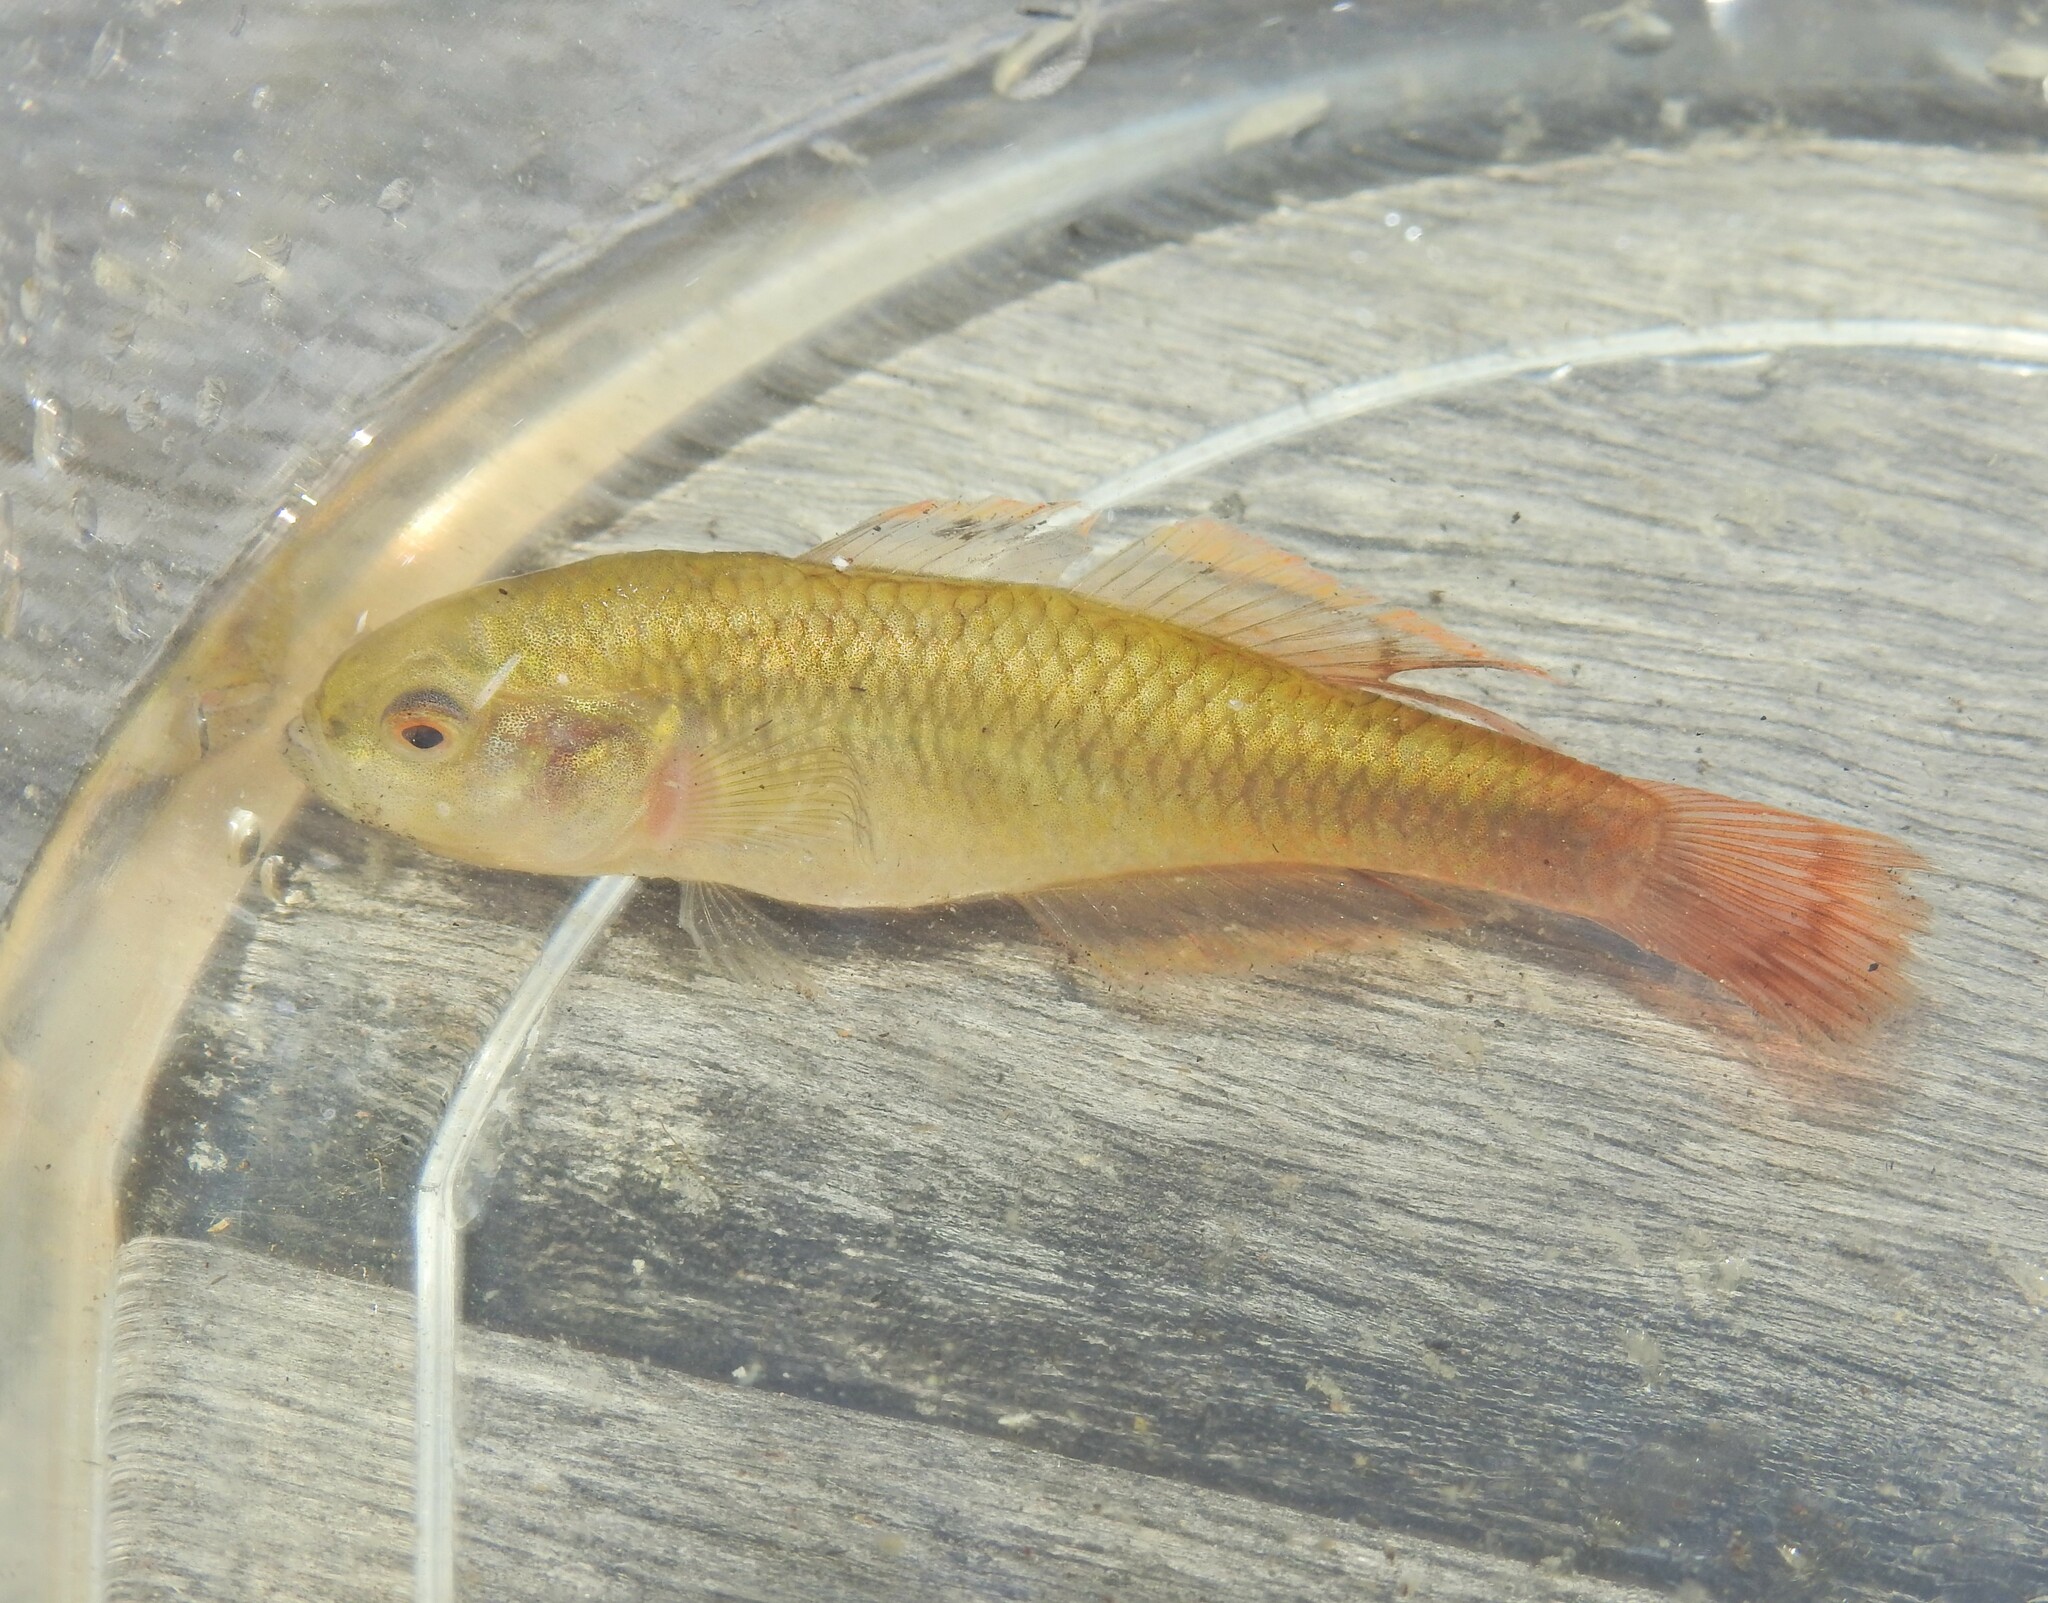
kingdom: Animalia
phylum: Chordata
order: Perciformes
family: Eleotridae
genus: Hypseleotris
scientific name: Hypseleotris galii
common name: Fire-tailed gudgeon
